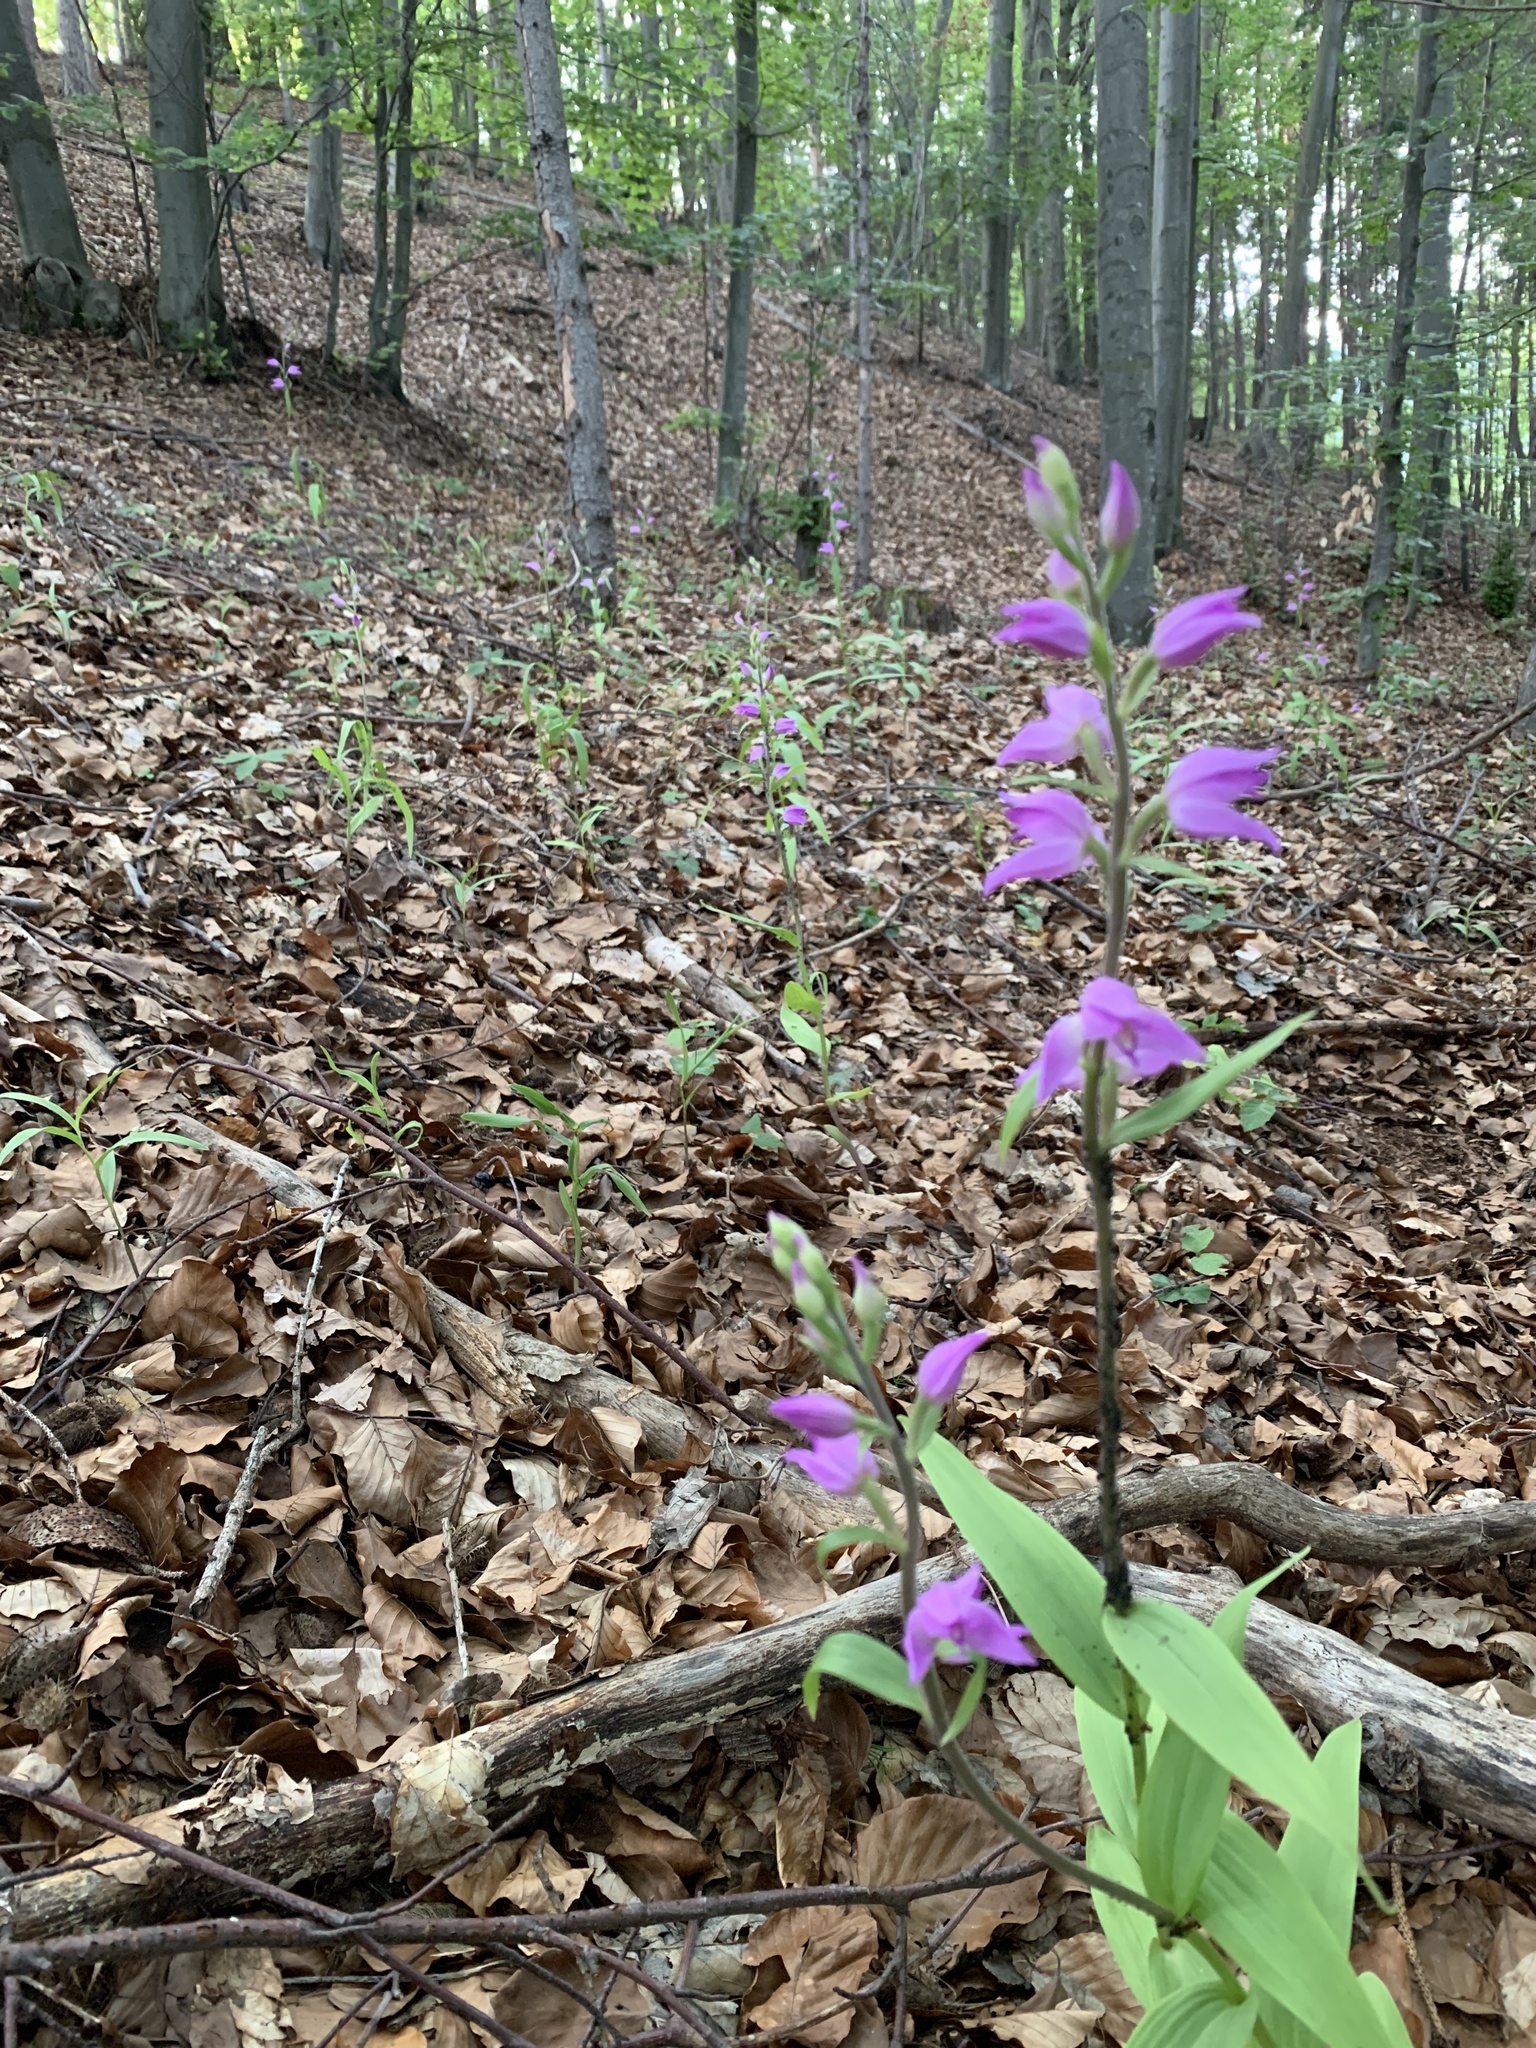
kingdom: Plantae
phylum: Tracheophyta
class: Liliopsida
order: Asparagales
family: Orchidaceae
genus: Cephalanthera
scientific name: Cephalanthera rubra
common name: Red helleborine
